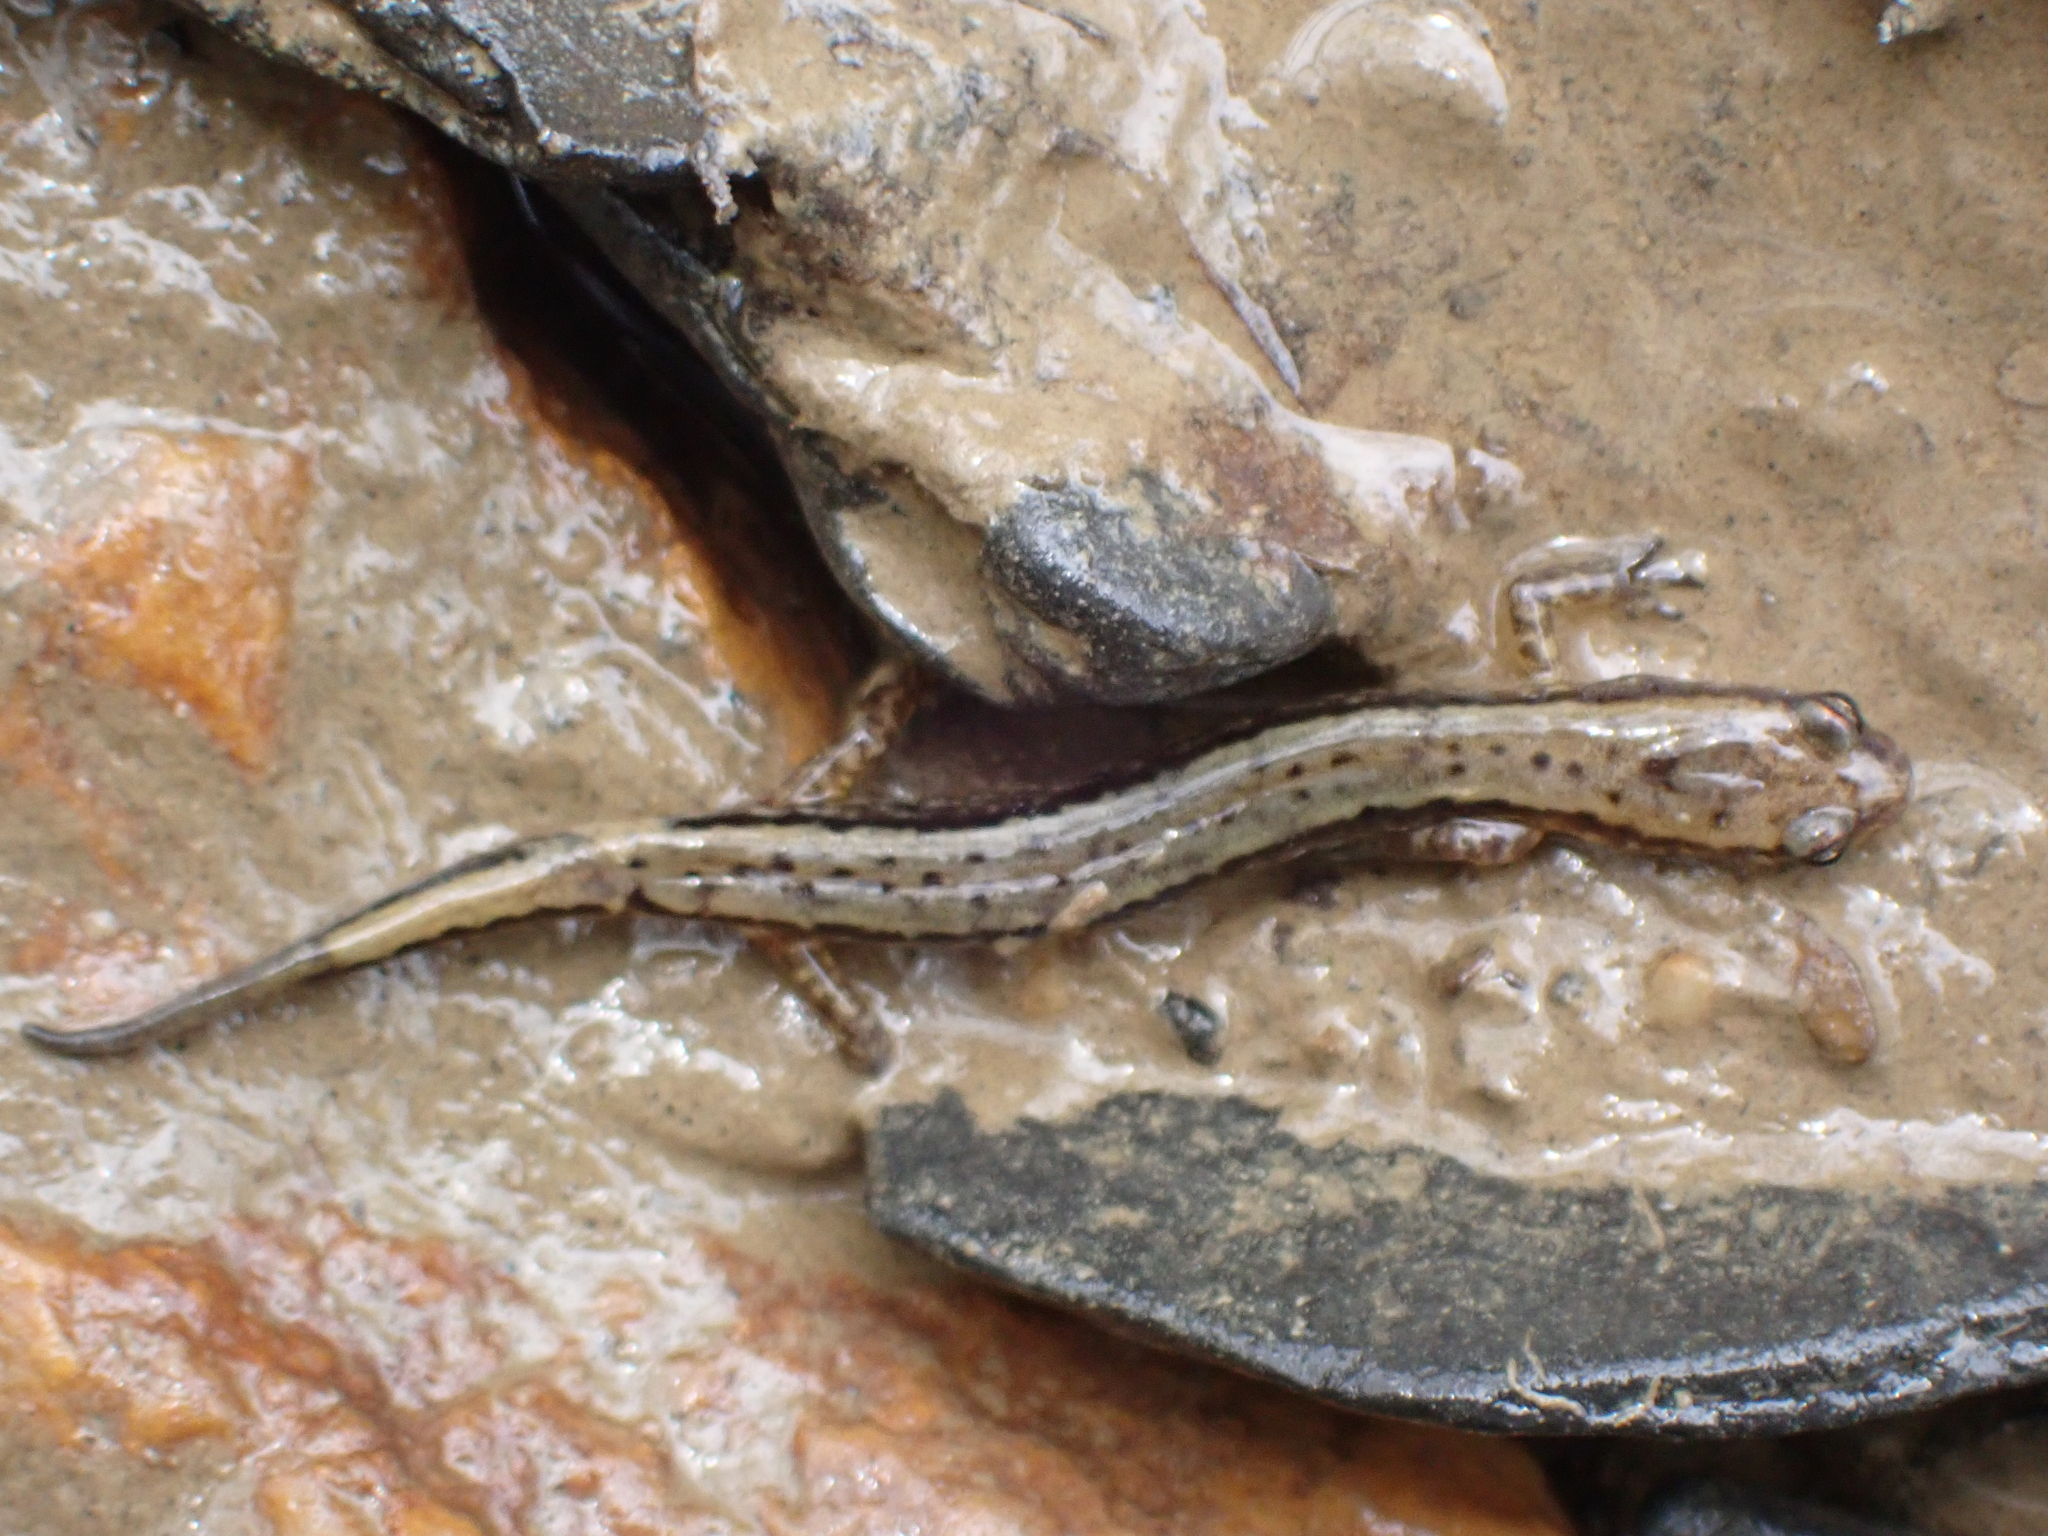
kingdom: Animalia
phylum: Chordata
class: Amphibia
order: Caudata
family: Plethodontidae
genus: Eurycea
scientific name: Eurycea cirrigera
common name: Southern two-lined salamander
